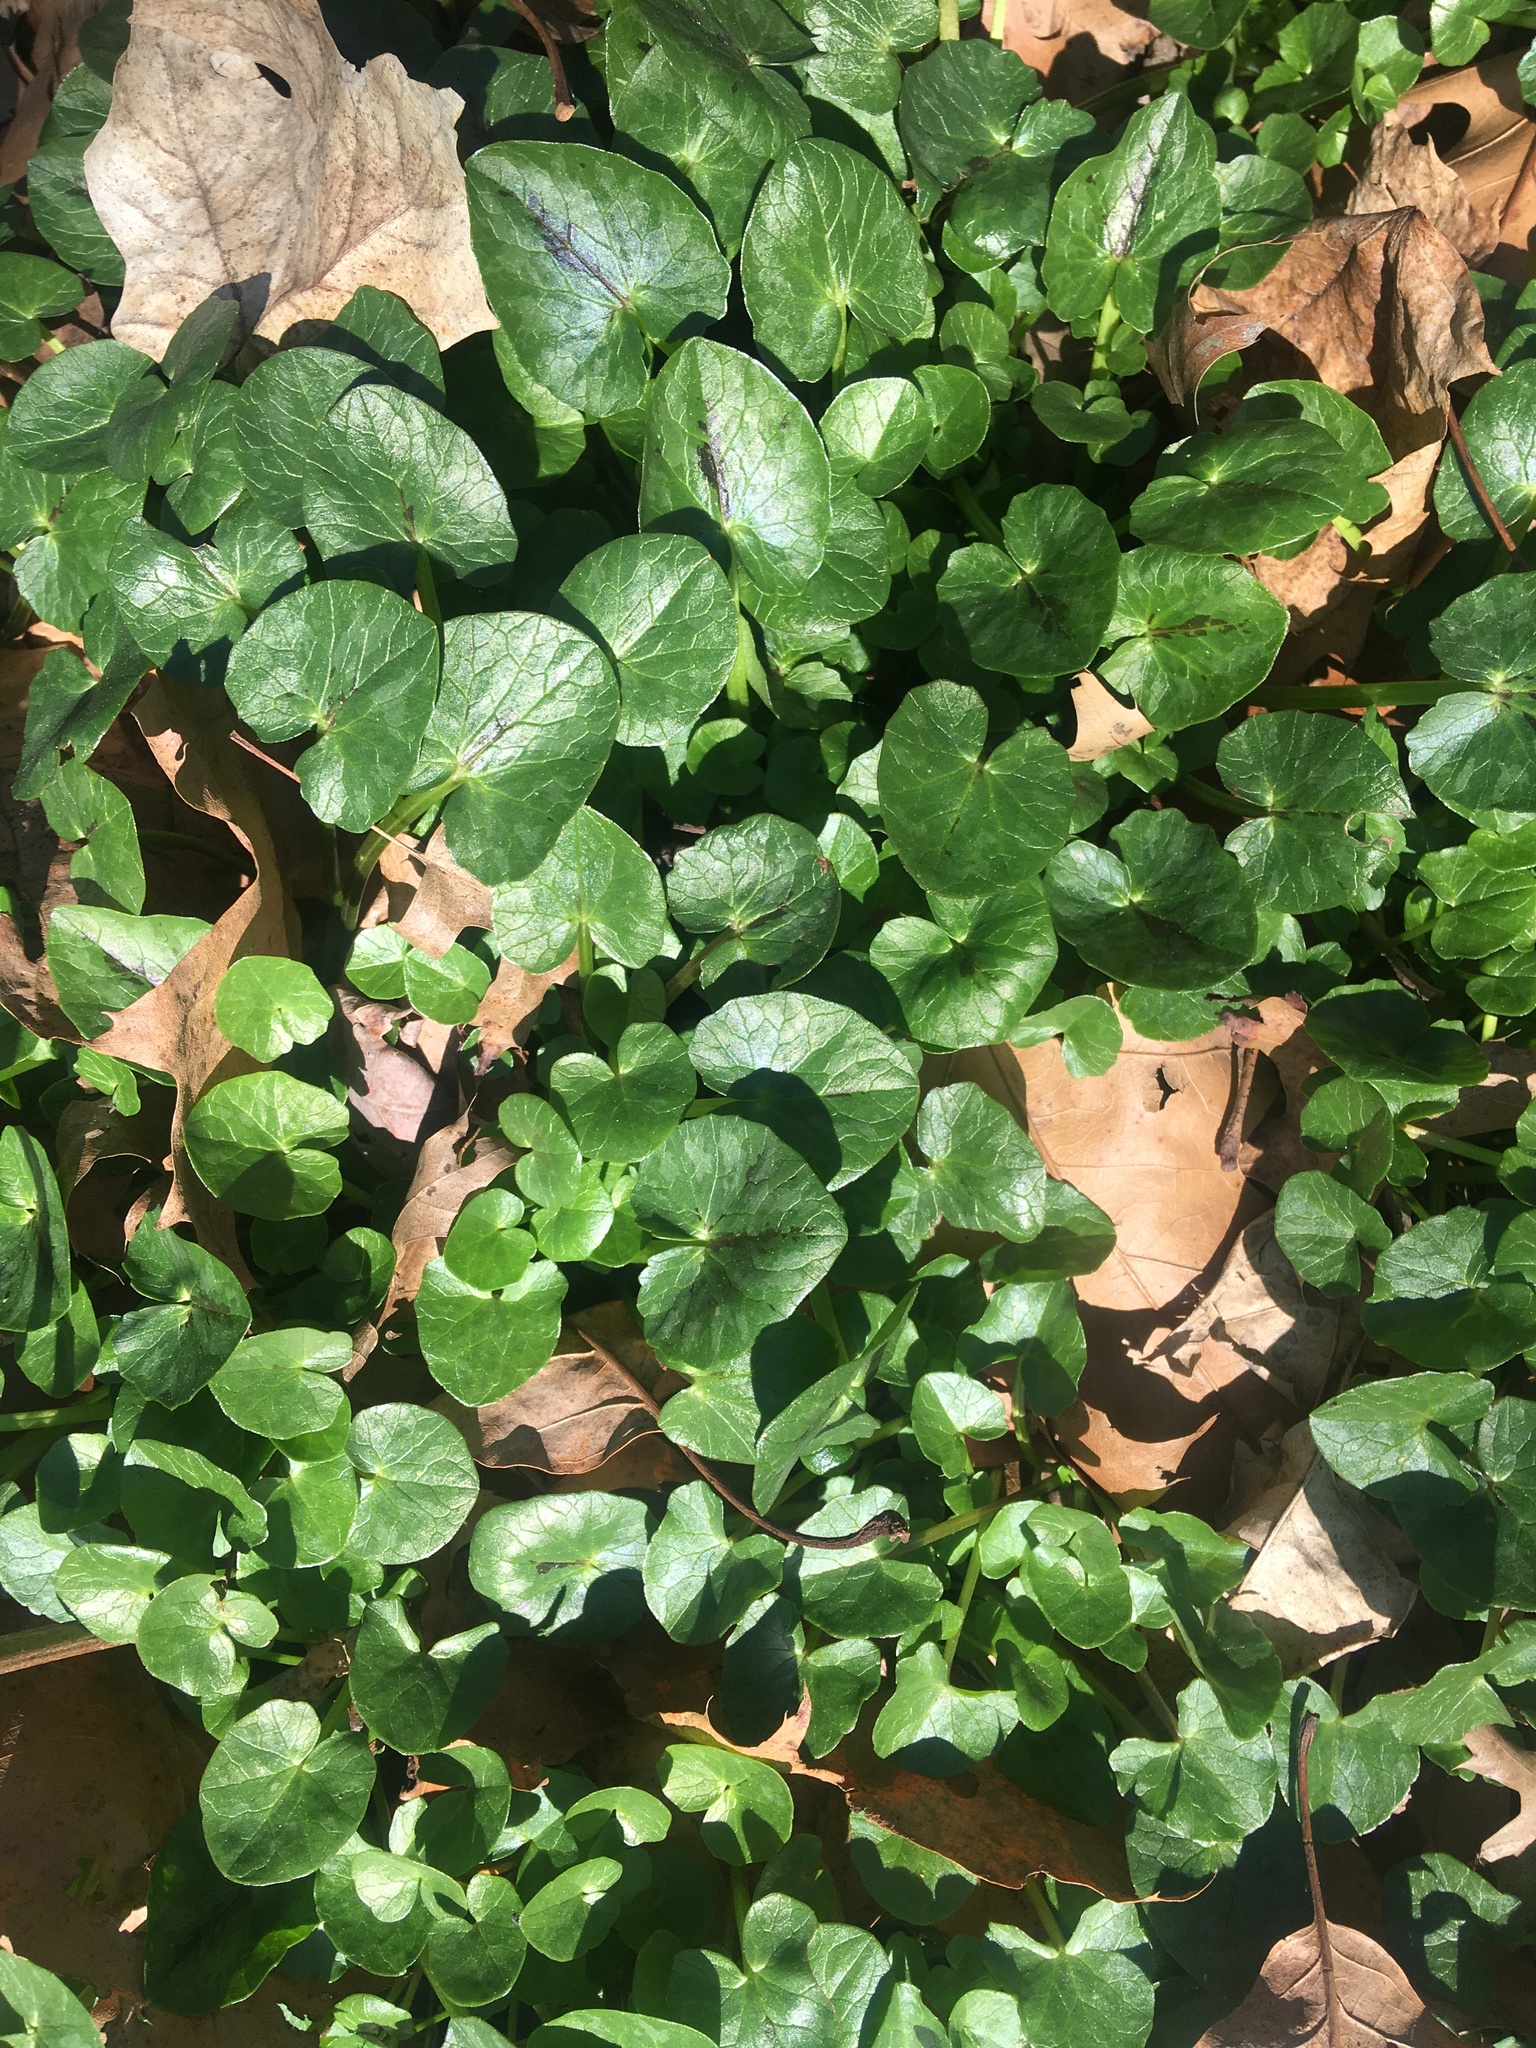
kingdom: Plantae
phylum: Tracheophyta
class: Magnoliopsida
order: Ranunculales
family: Ranunculaceae
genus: Ficaria
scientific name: Ficaria verna
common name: Lesser celandine
